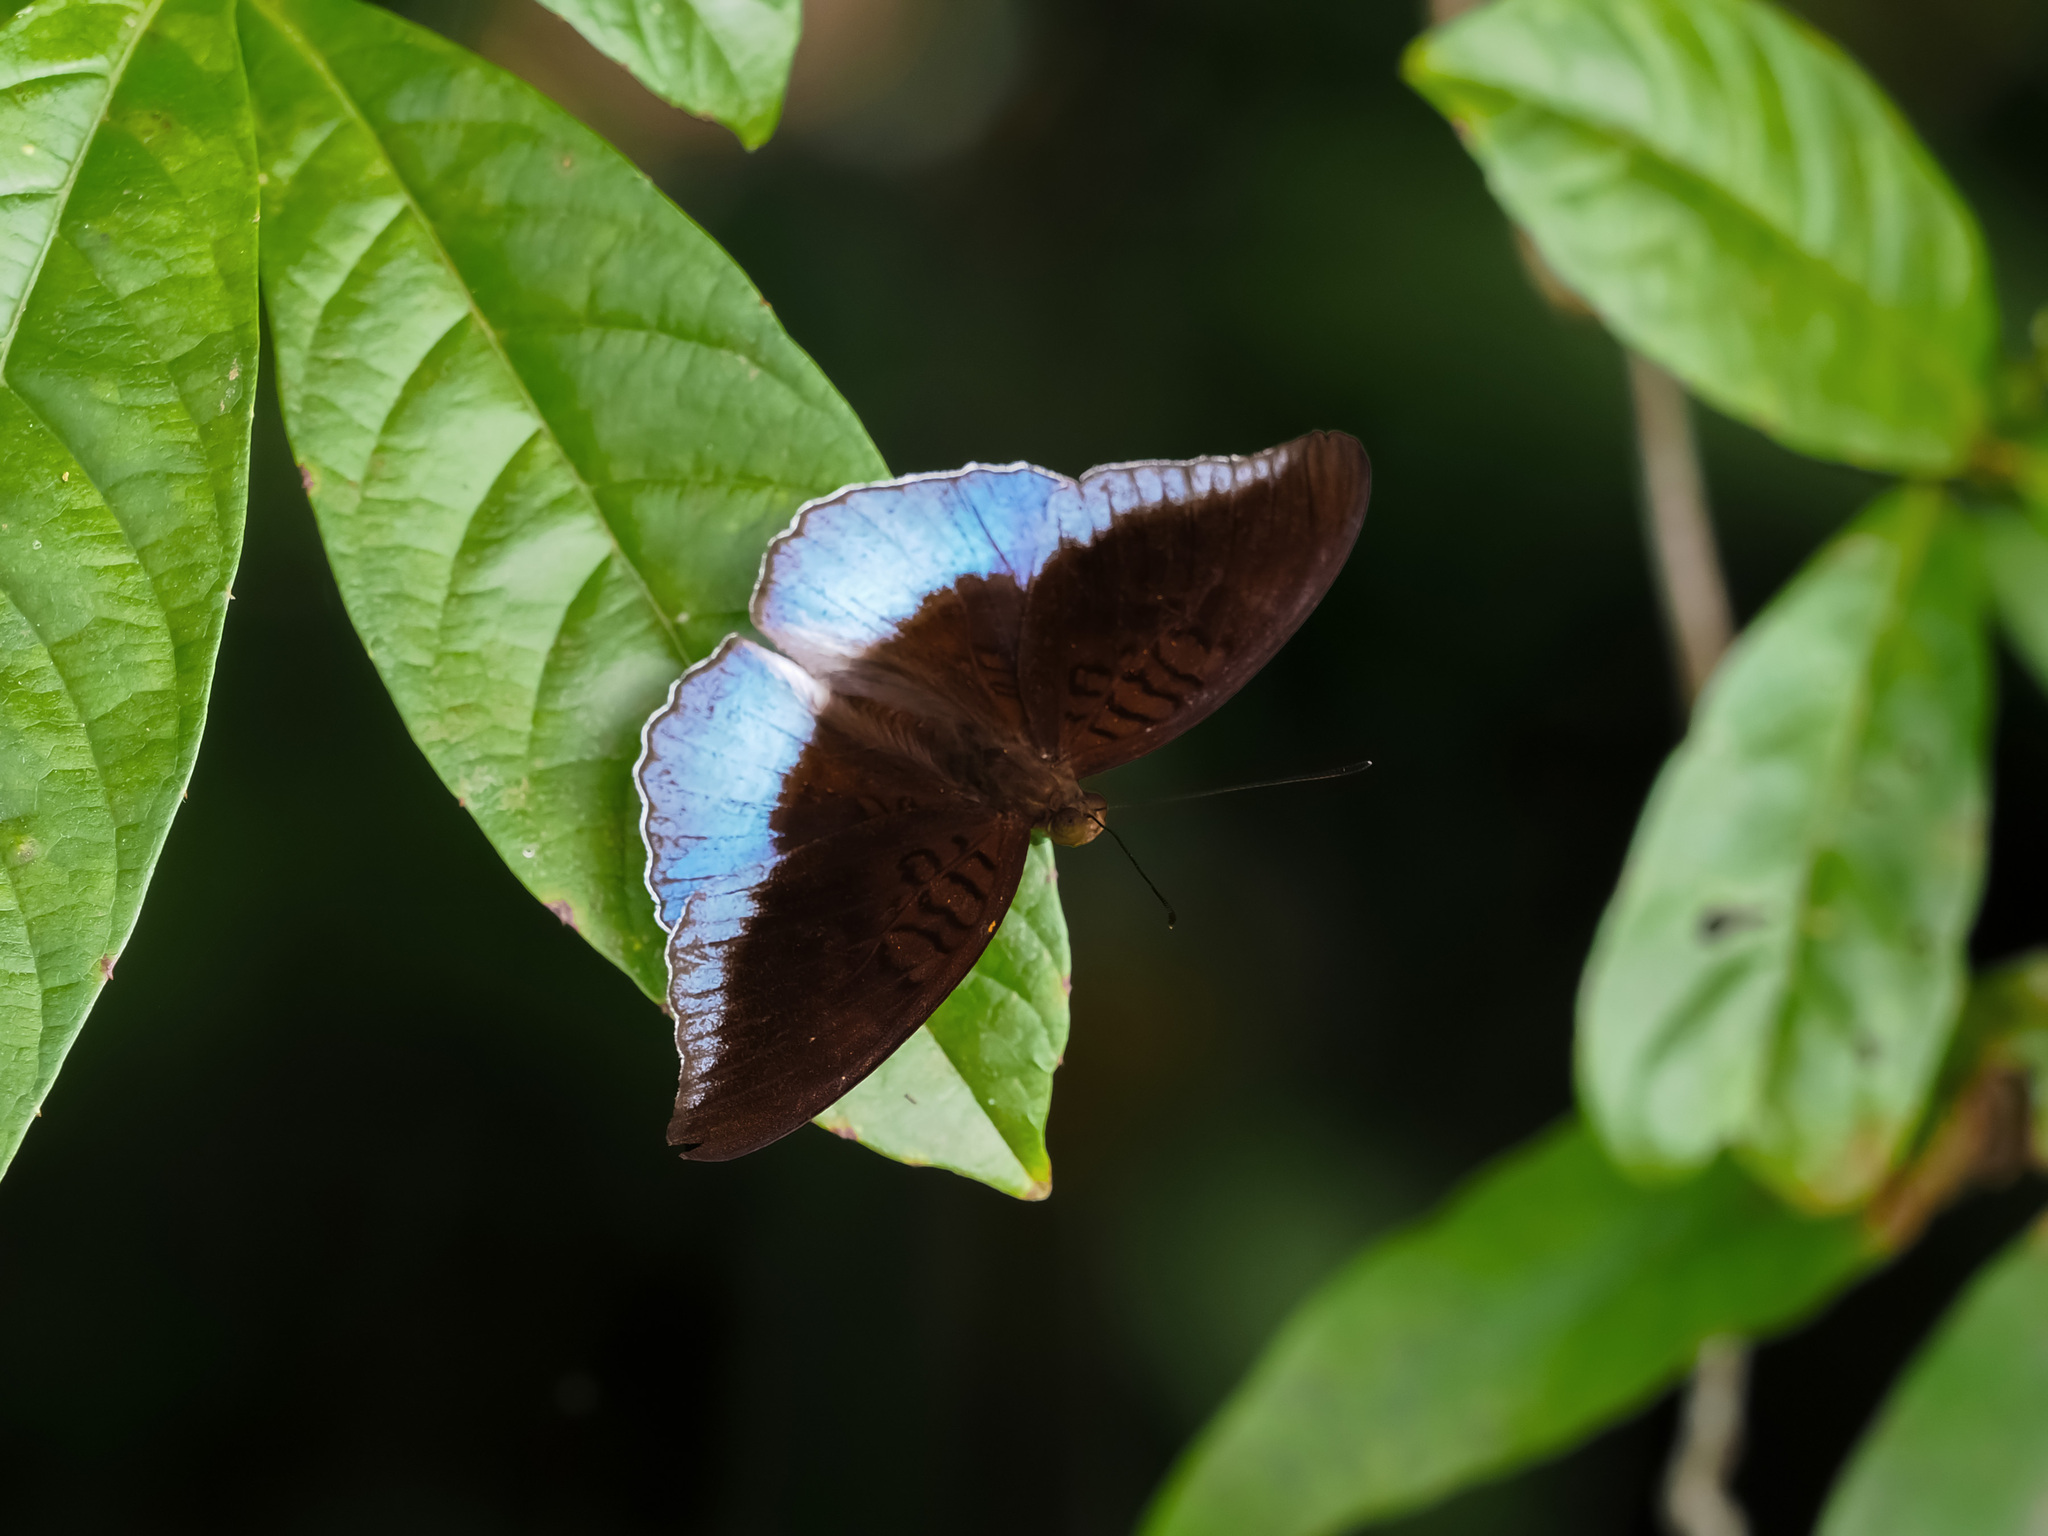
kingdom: Animalia
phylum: Arthropoda
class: Insecta
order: Lepidoptera
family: Nymphalidae
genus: Tanaecia
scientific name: Tanaecia iapis
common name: Horsfield's baron
